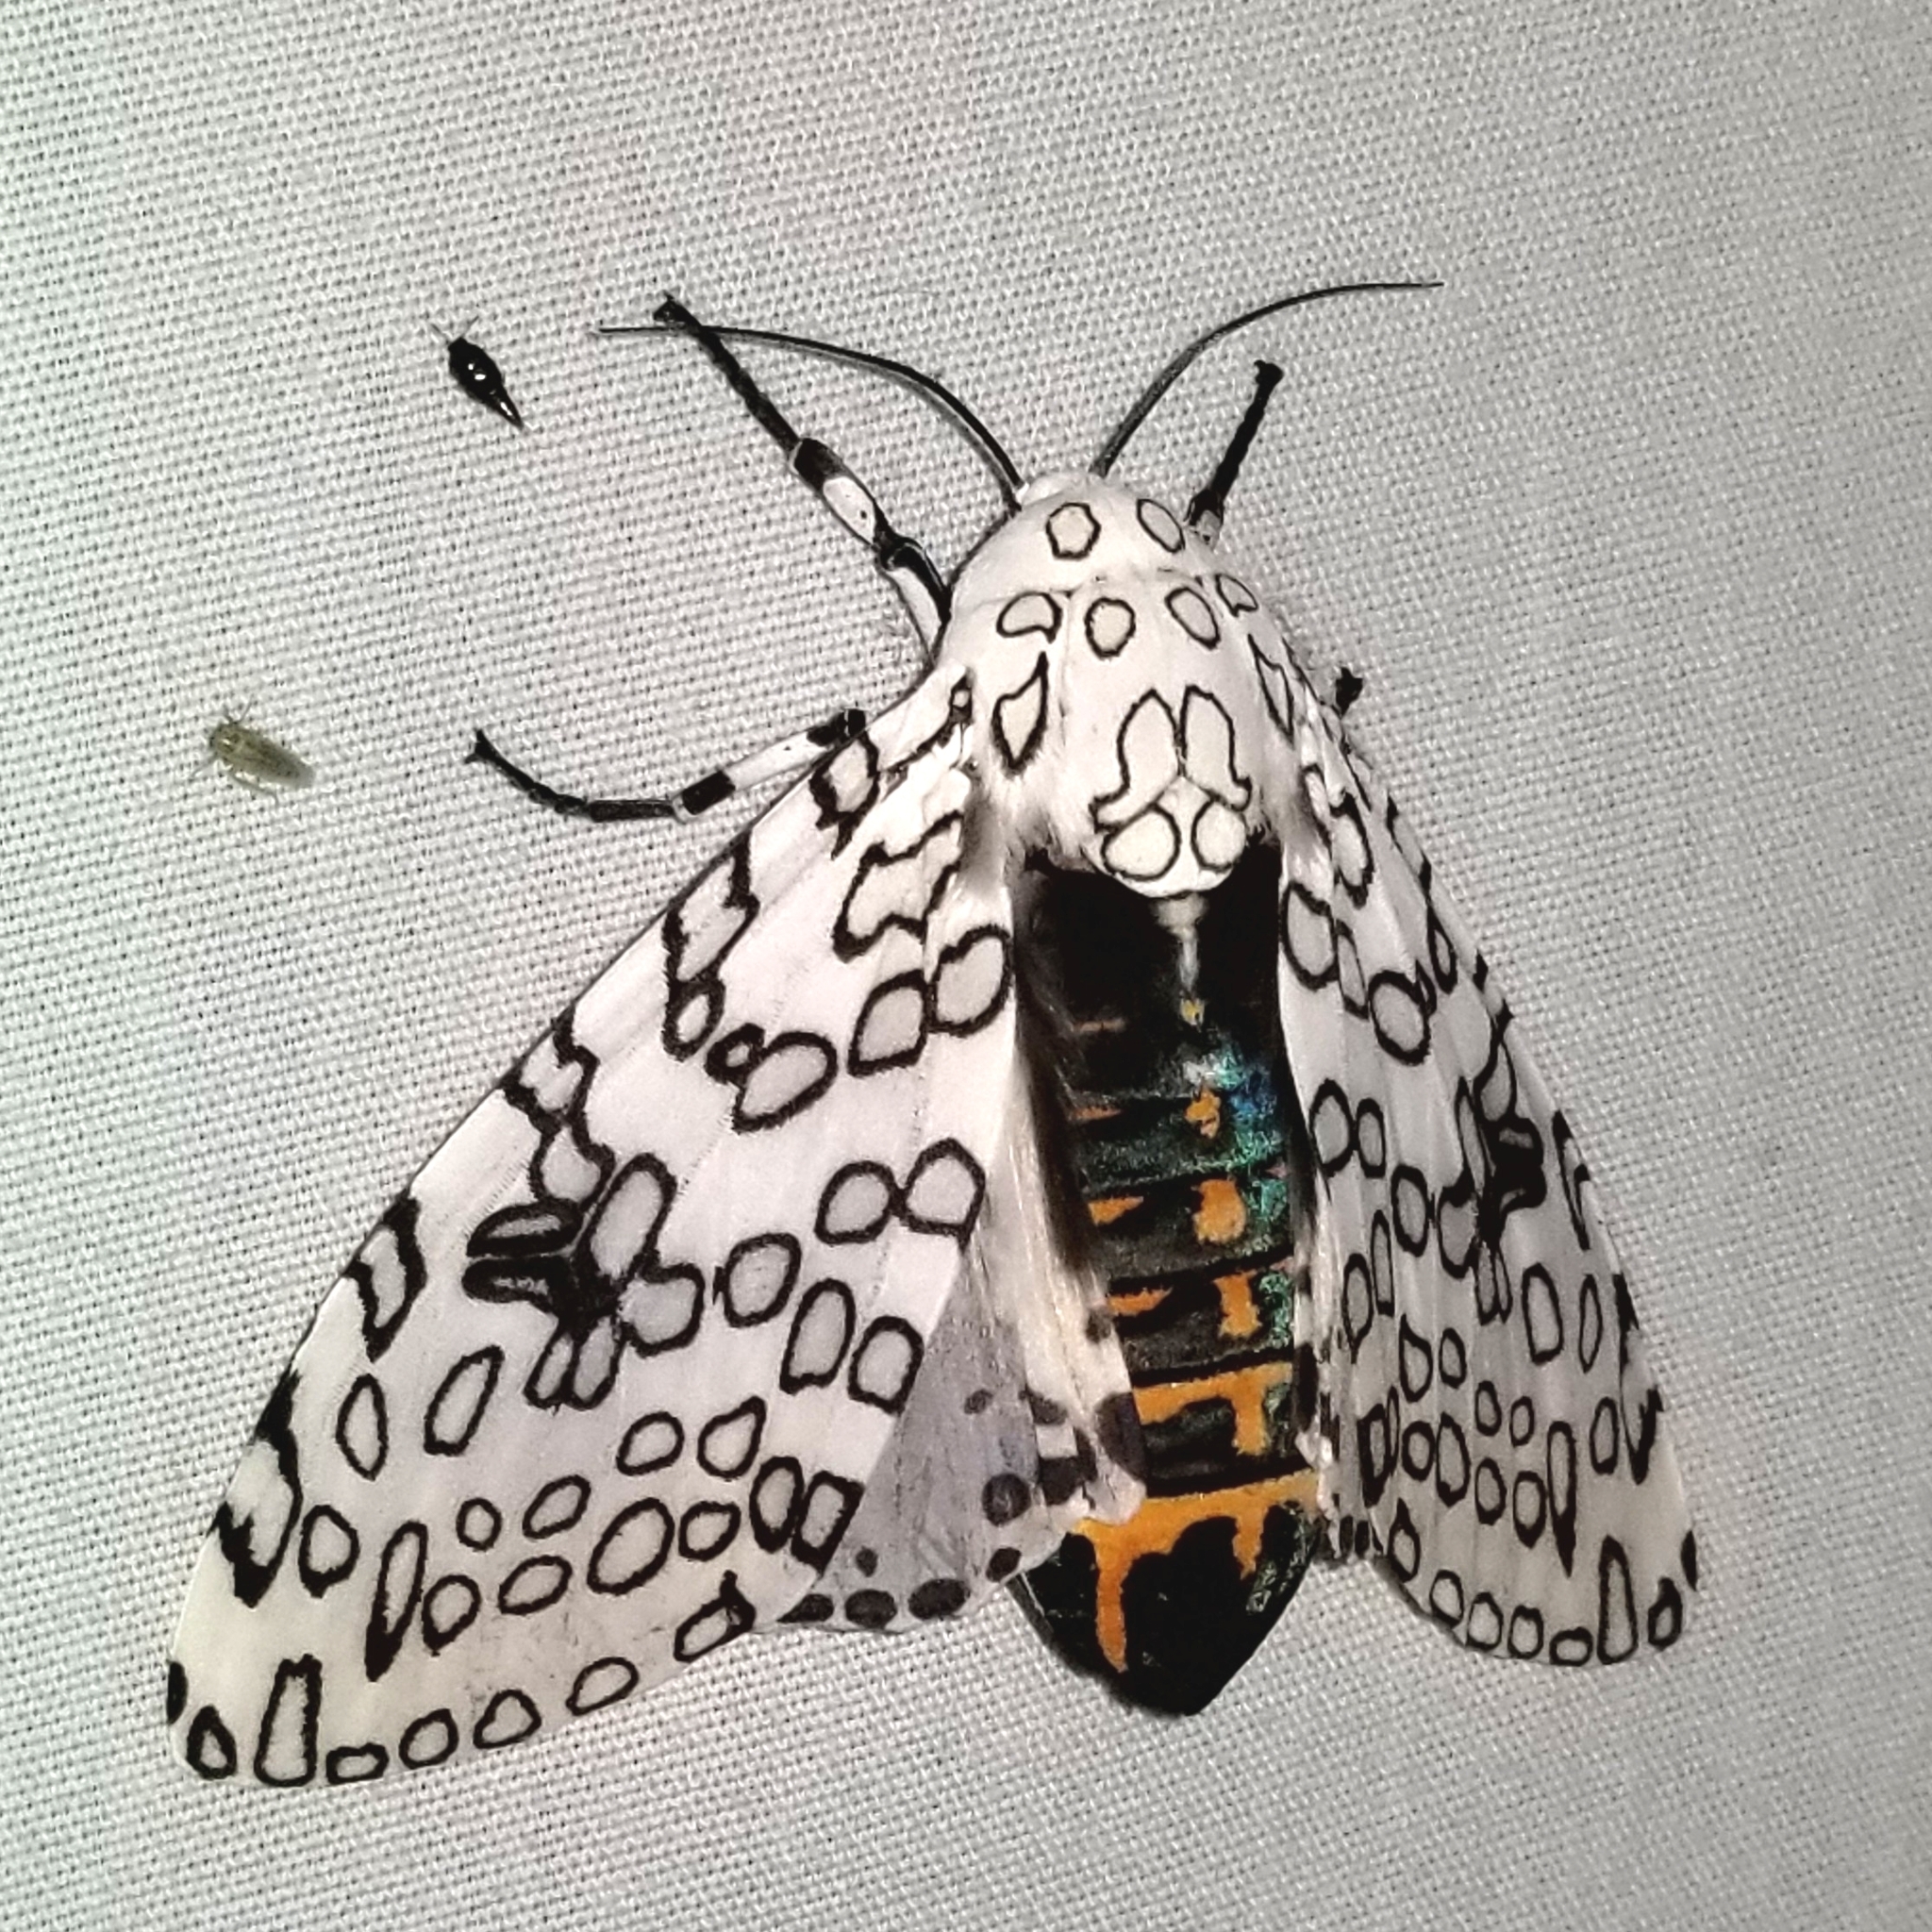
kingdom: Animalia
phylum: Arthropoda
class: Insecta
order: Lepidoptera
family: Erebidae
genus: Hypercompe
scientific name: Hypercompe scribonia
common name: Giant leopard moth
